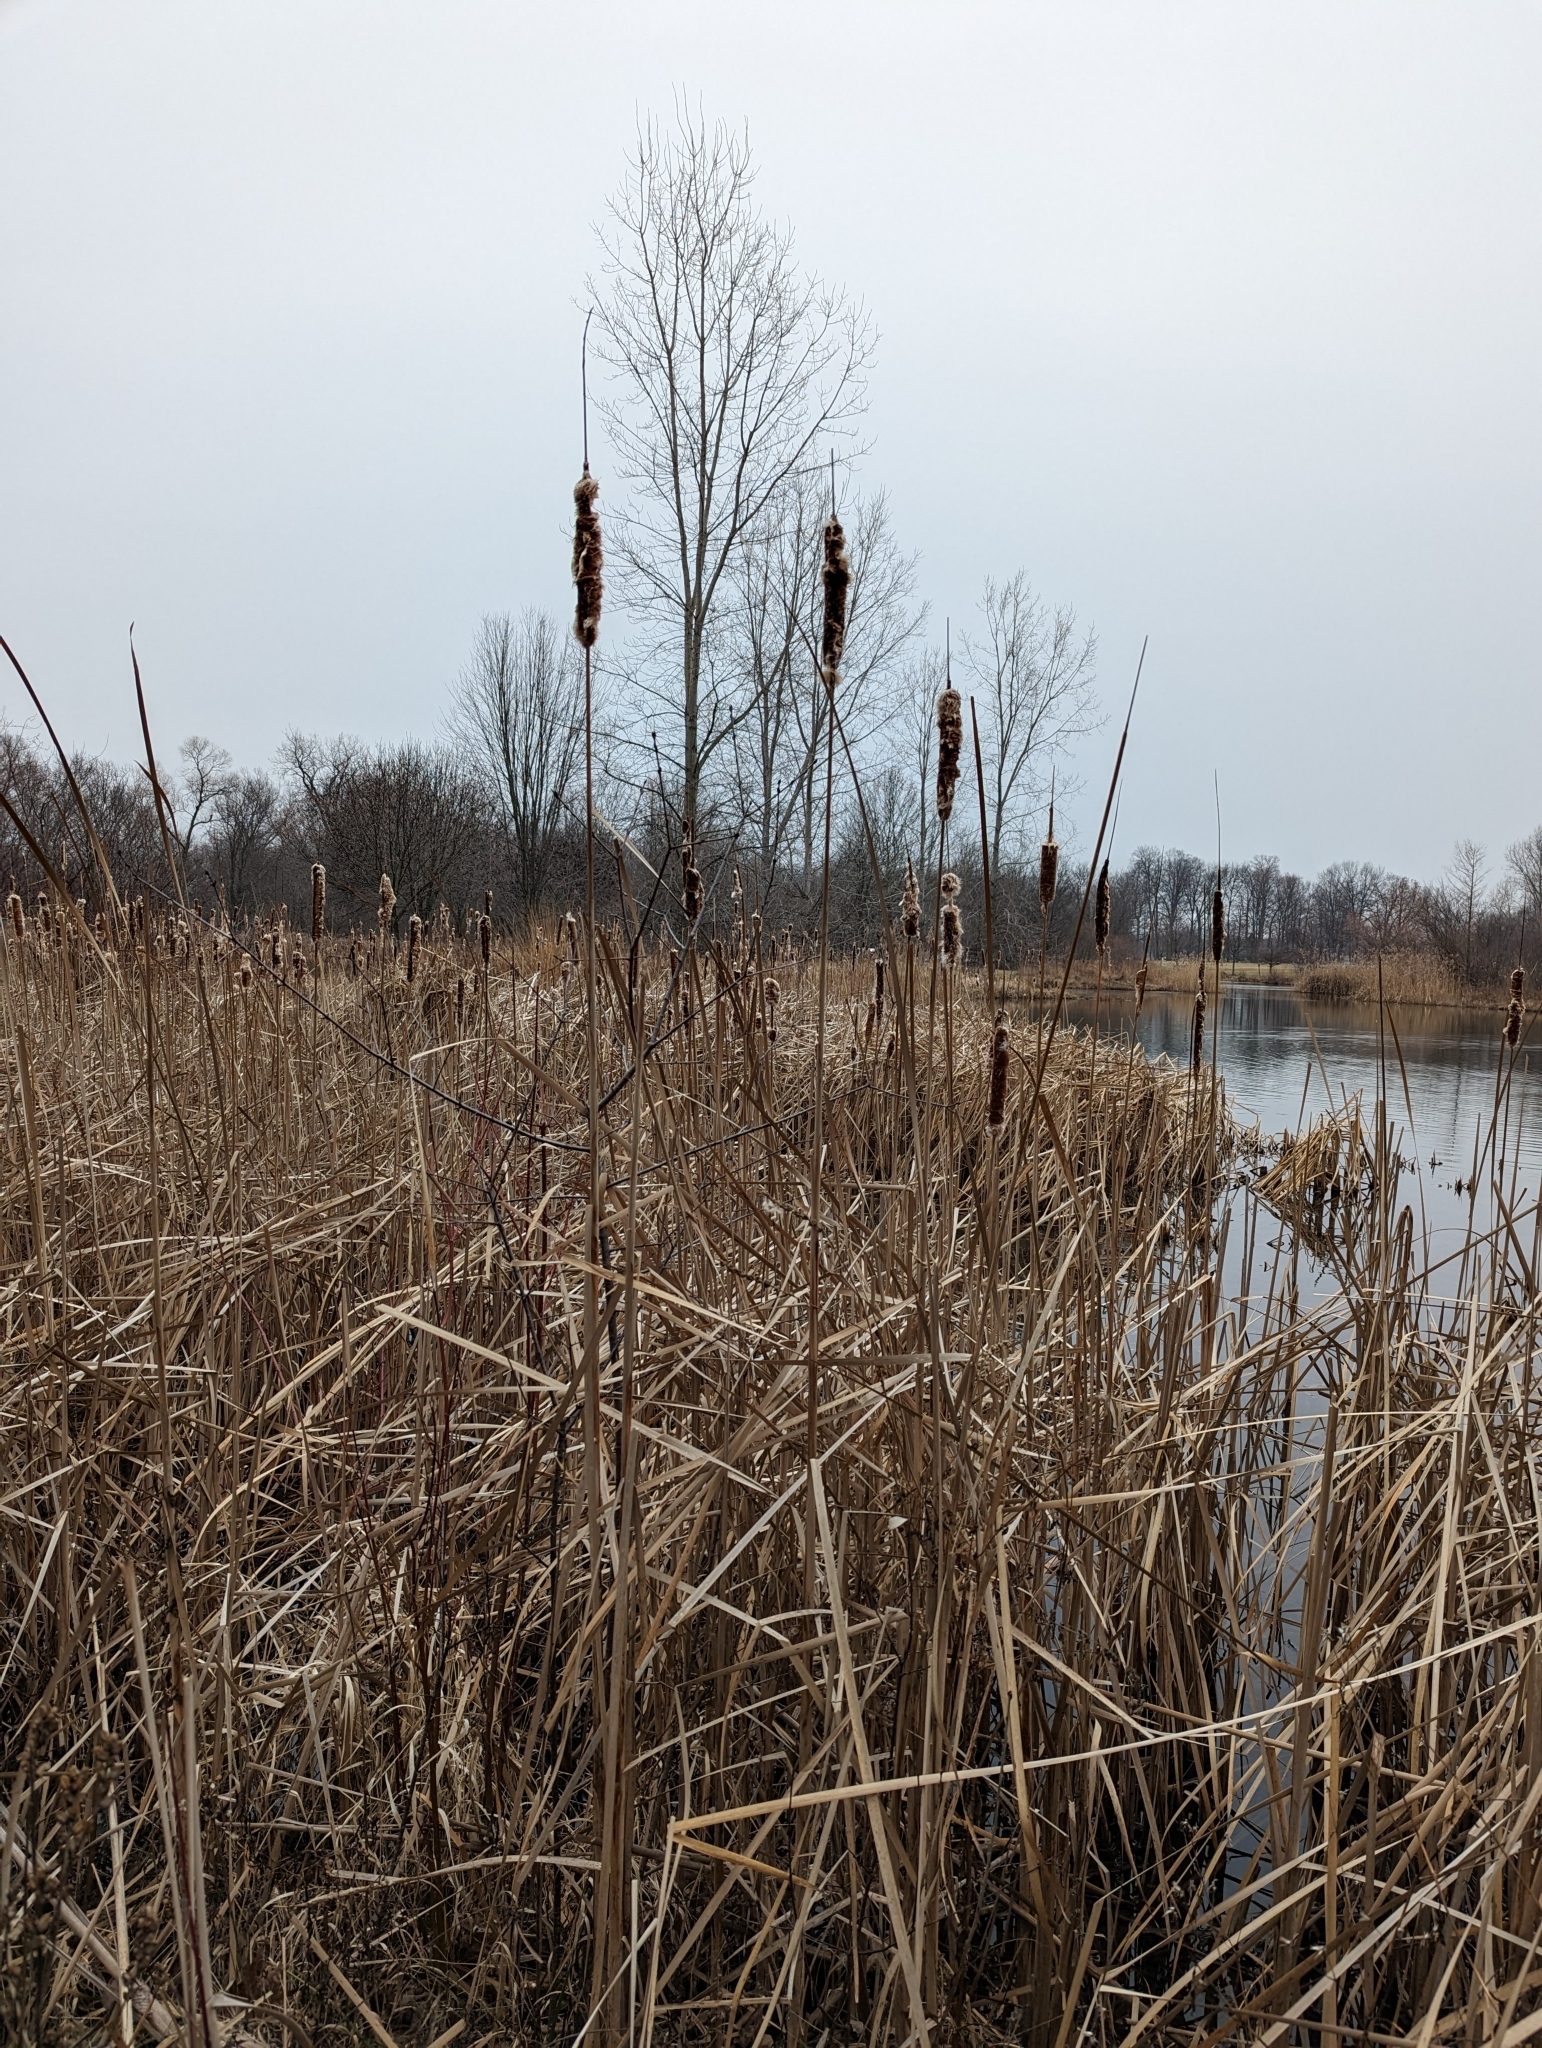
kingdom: Plantae
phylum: Tracheophyta
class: Liliopsida
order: Poales
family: Typhaceae
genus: Typha
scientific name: Typha latifolia
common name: Broadleaf cattail
